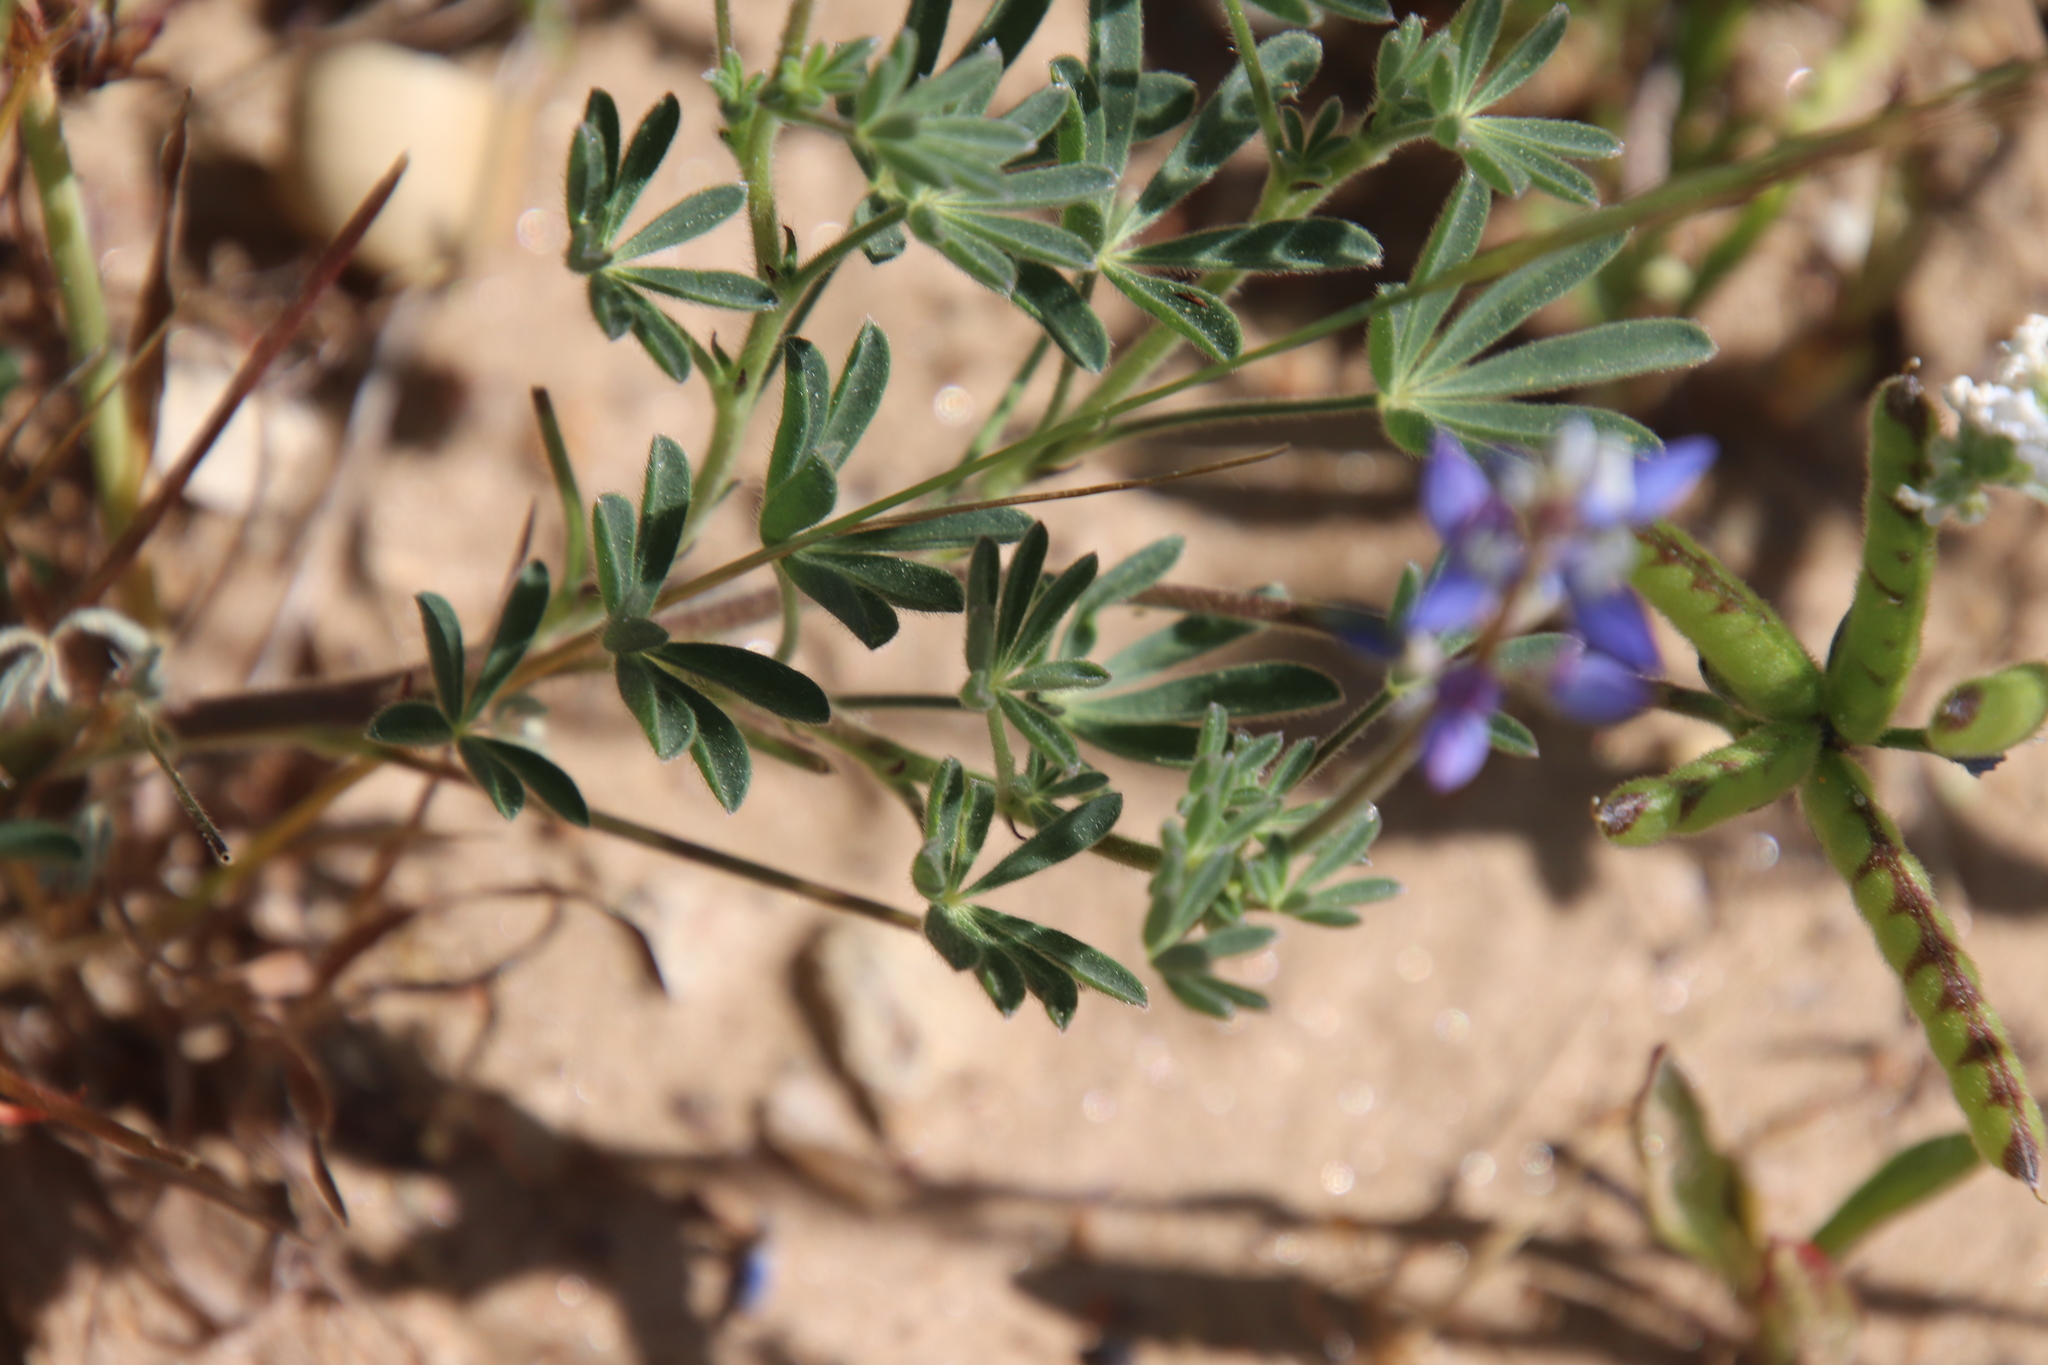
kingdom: Plantae
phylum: Tracheophyta
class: Magnoliopsida
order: Fabales
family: Fabaceae
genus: Lupinus
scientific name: Lupinus bicolor
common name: Miniature lupine
